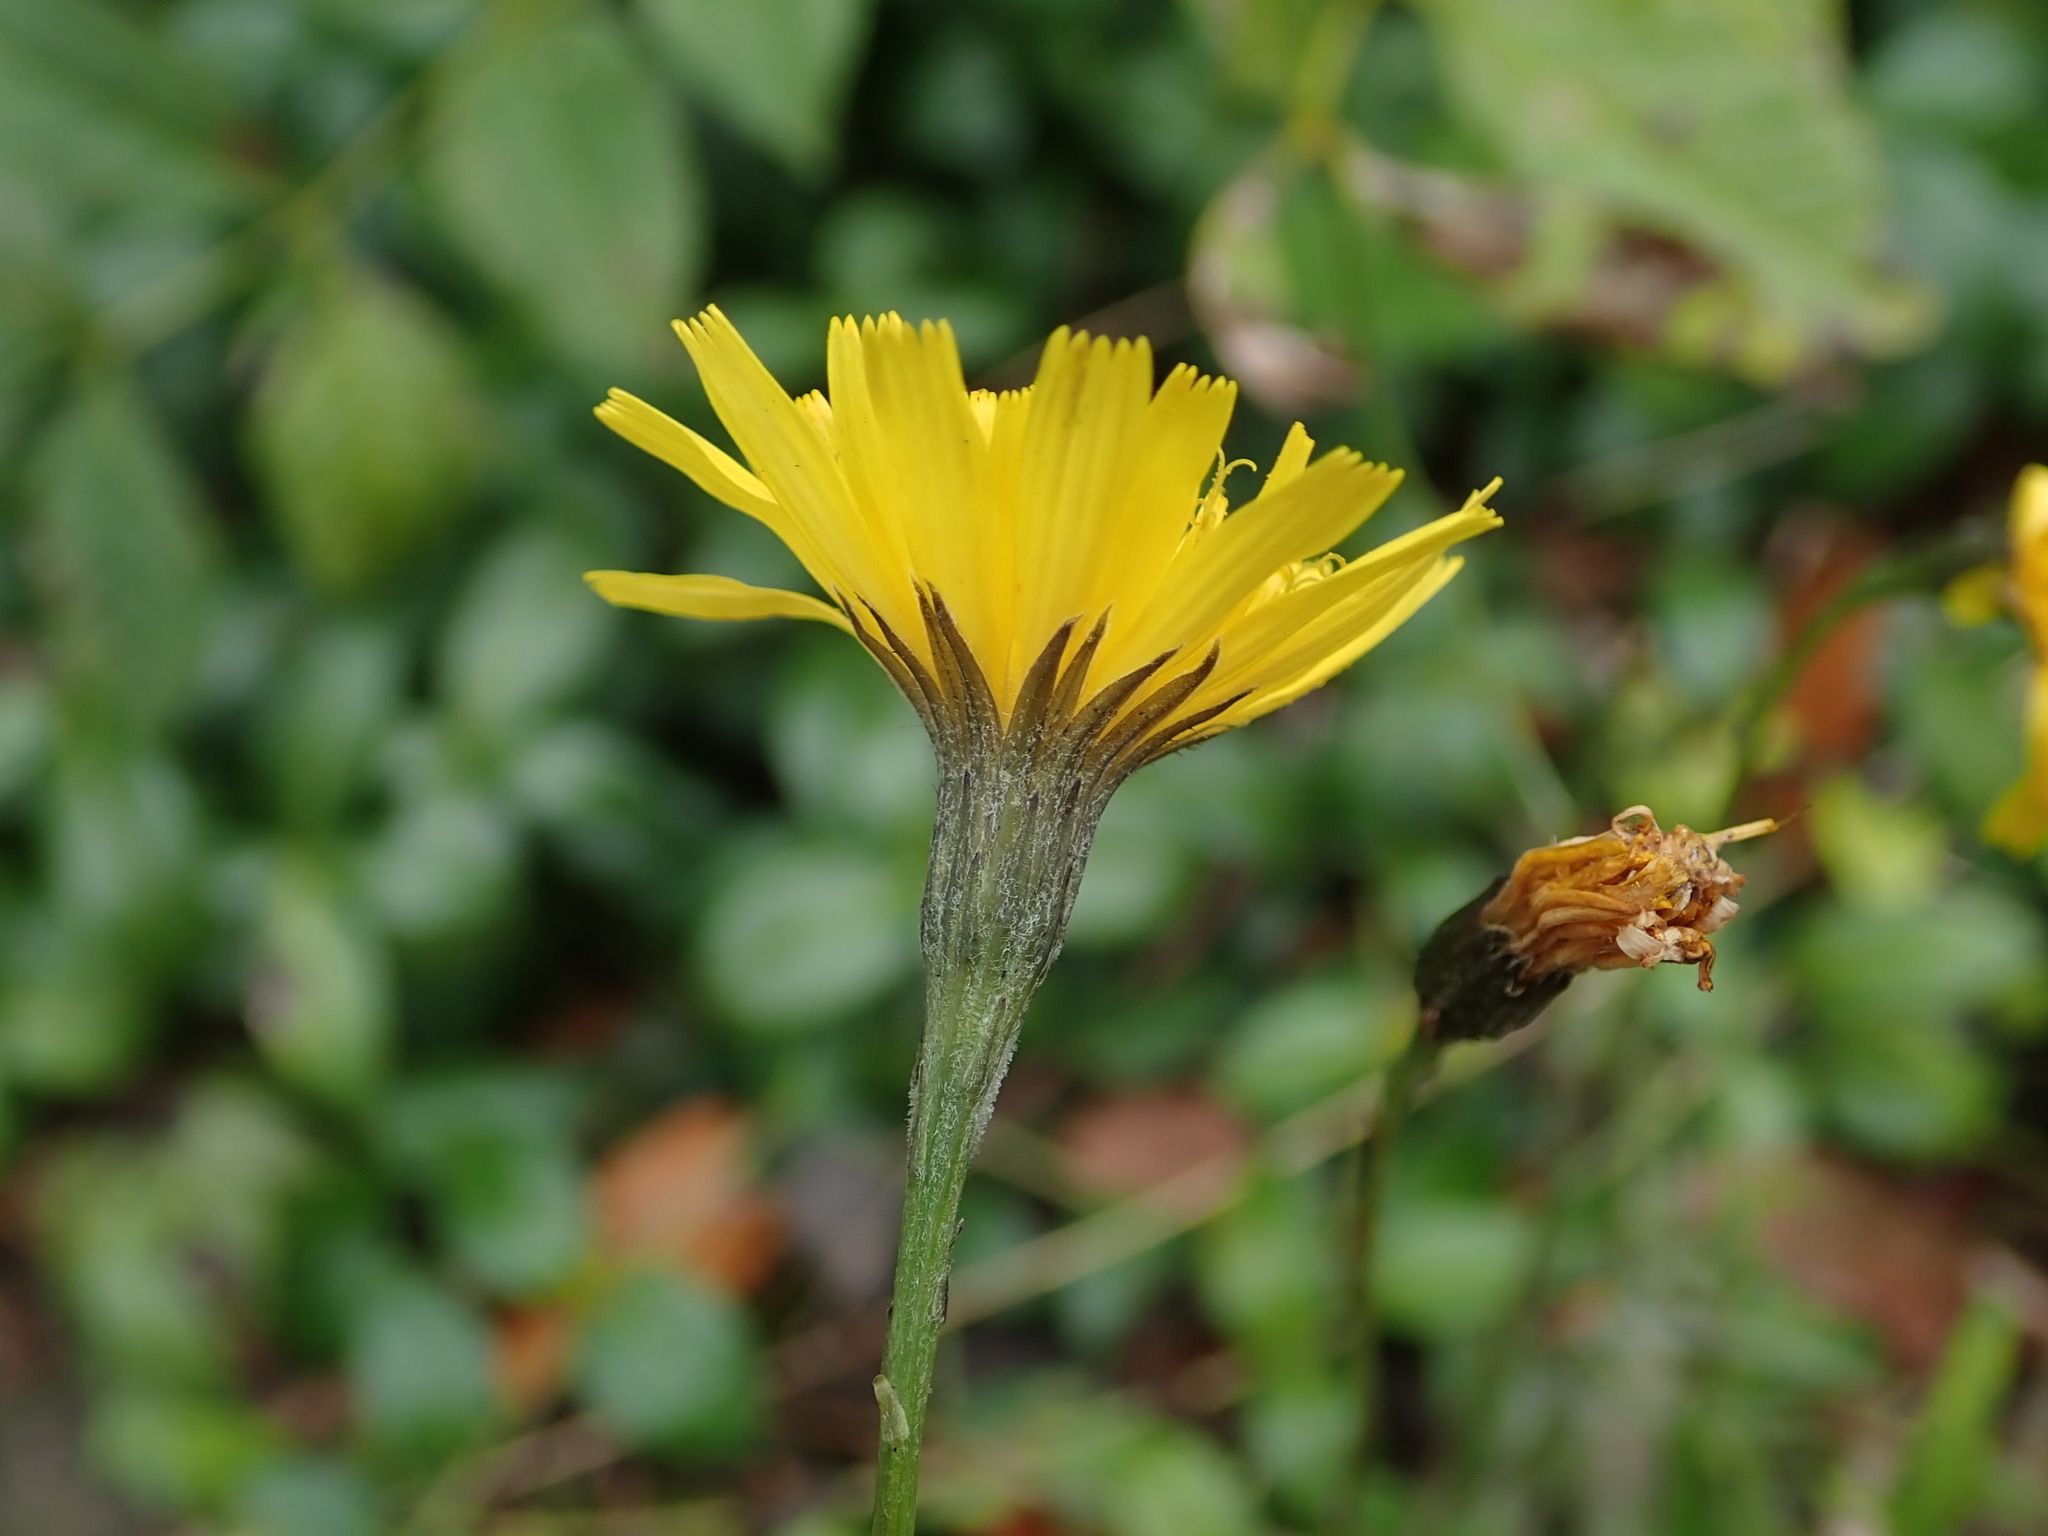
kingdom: Plantae
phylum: Tracheophyta
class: Magnoliopsida
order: Asterales
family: Asteraceae
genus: Scorzoneroides
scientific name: Scorzoneroides autumnalis
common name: Autumn hawkbit
